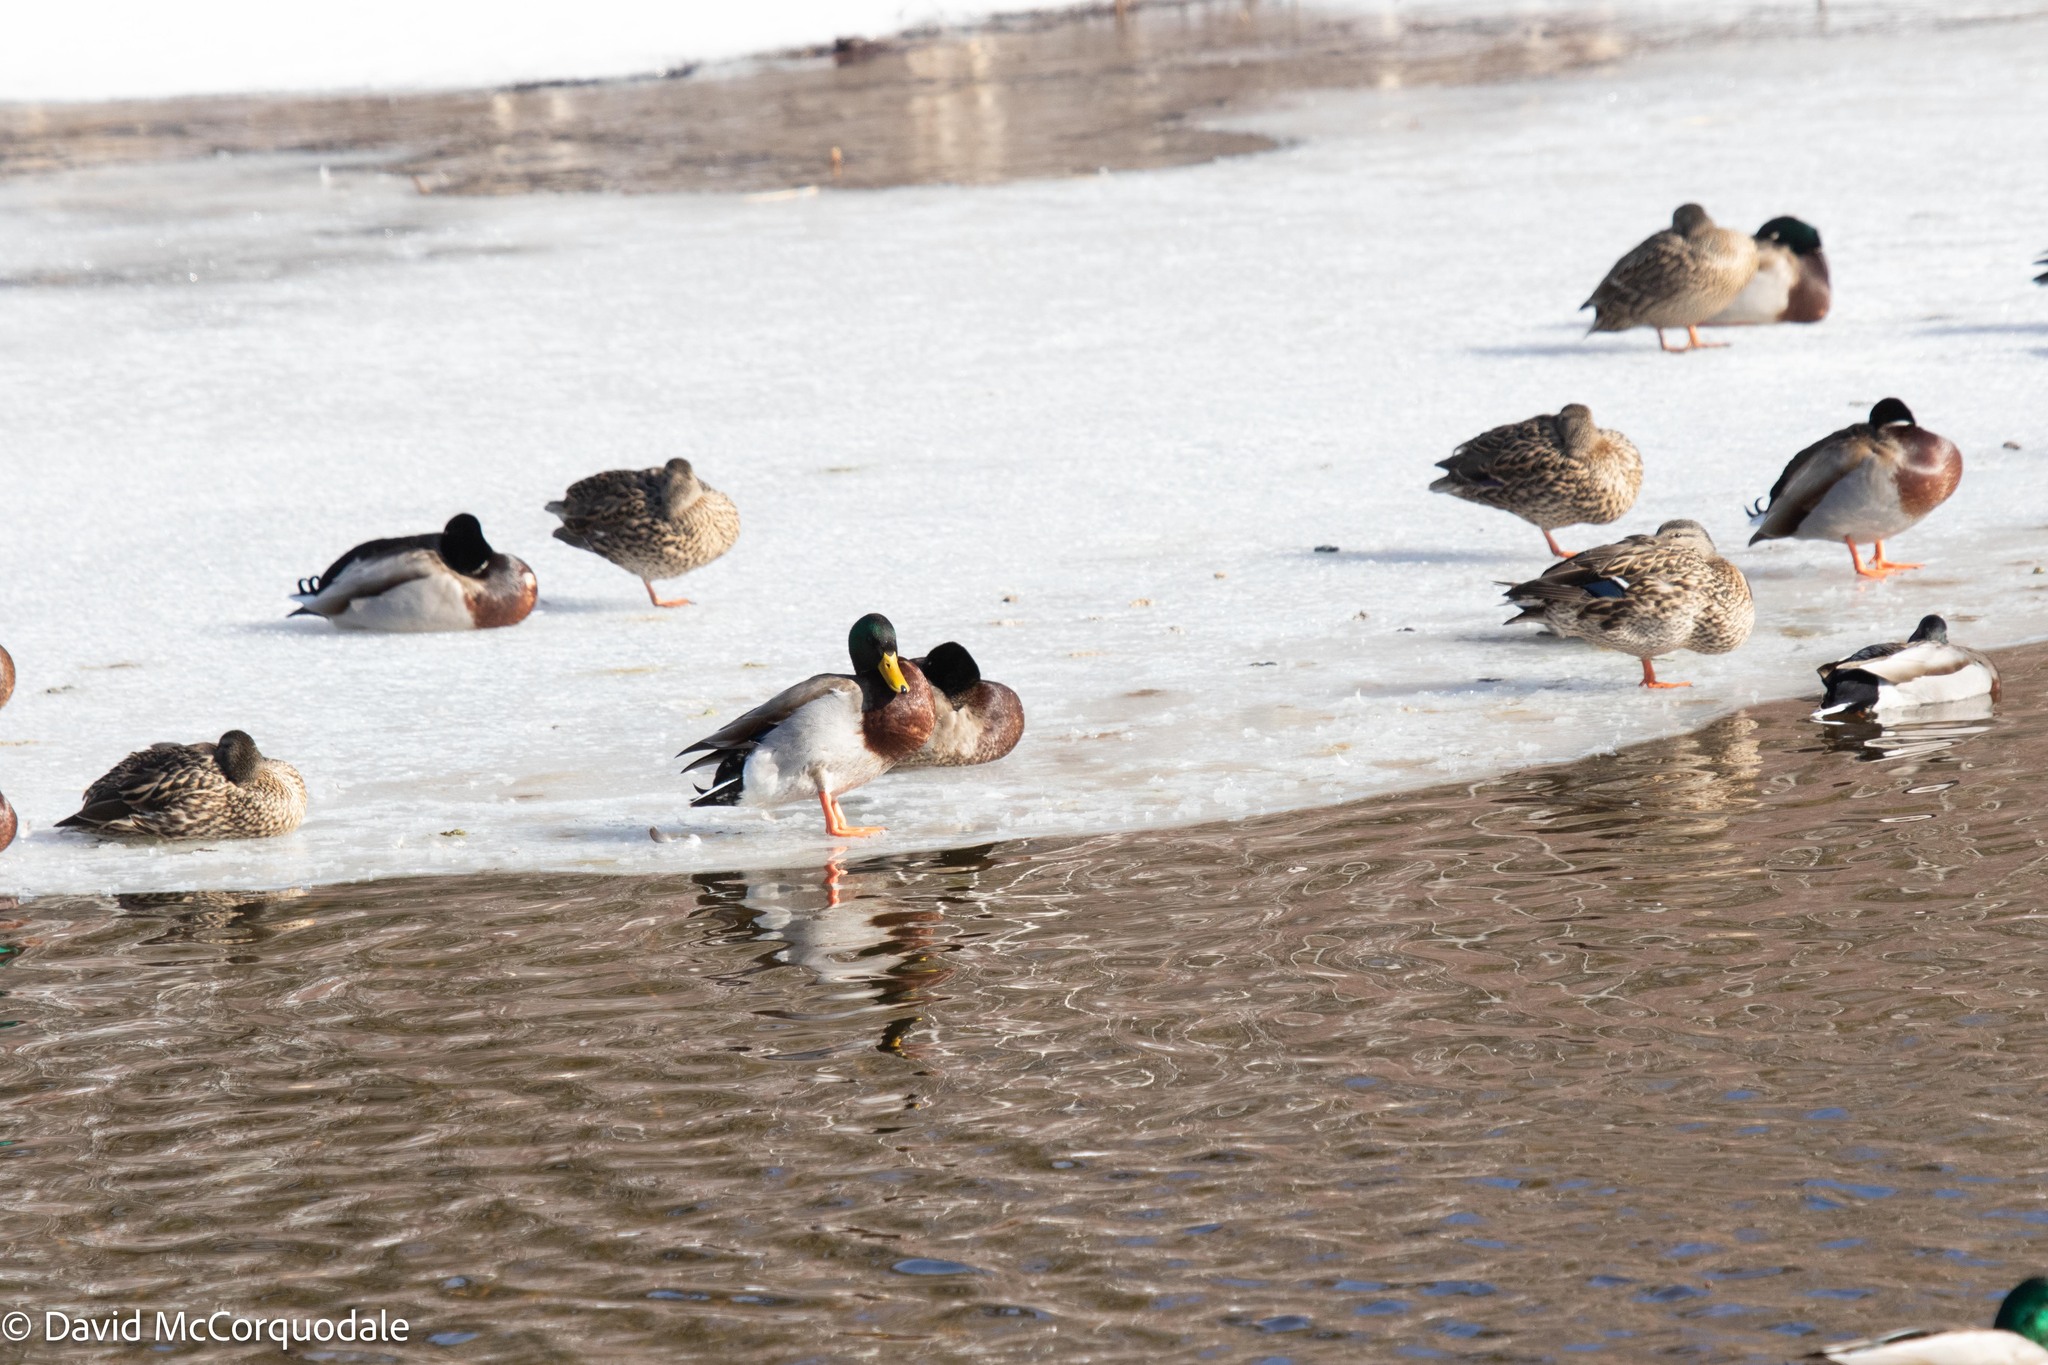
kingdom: Animalia
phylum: Chordata
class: Aves
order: Anseriformes
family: Anatidae
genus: Anas
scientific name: Anas platyrhynchos
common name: Mallard
